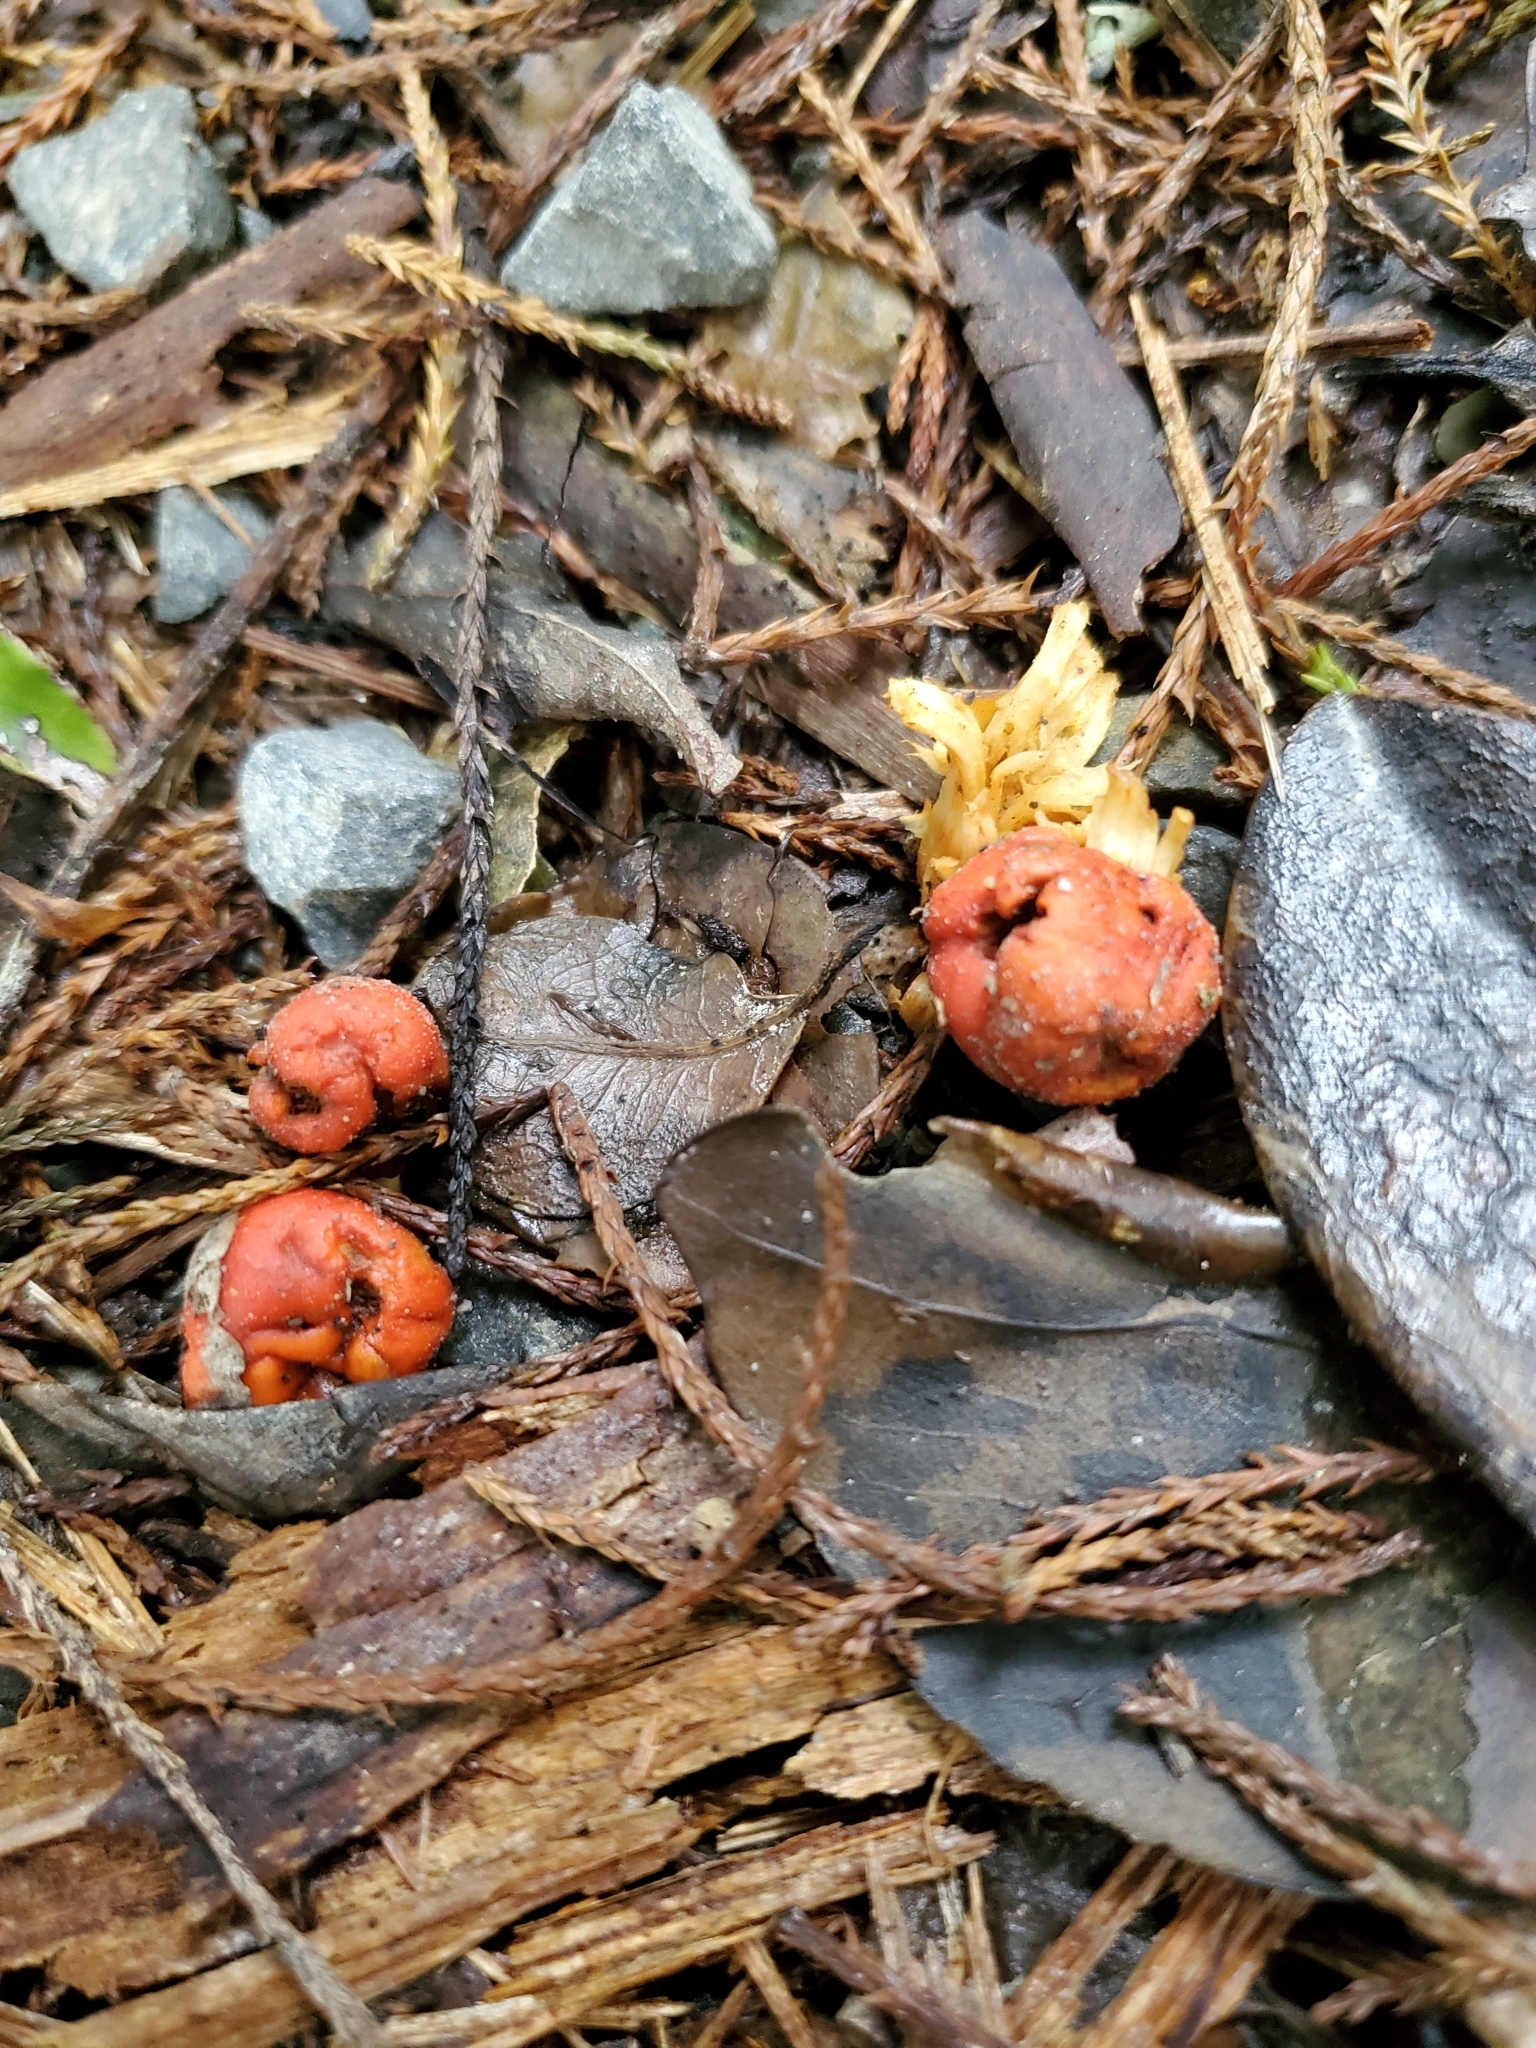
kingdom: Fungi
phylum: Basidiomycota
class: Agaricomycetes
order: Agaricales
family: Strophariaceae
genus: Leratiomyces
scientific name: Leratiomyces erythrocephalus
